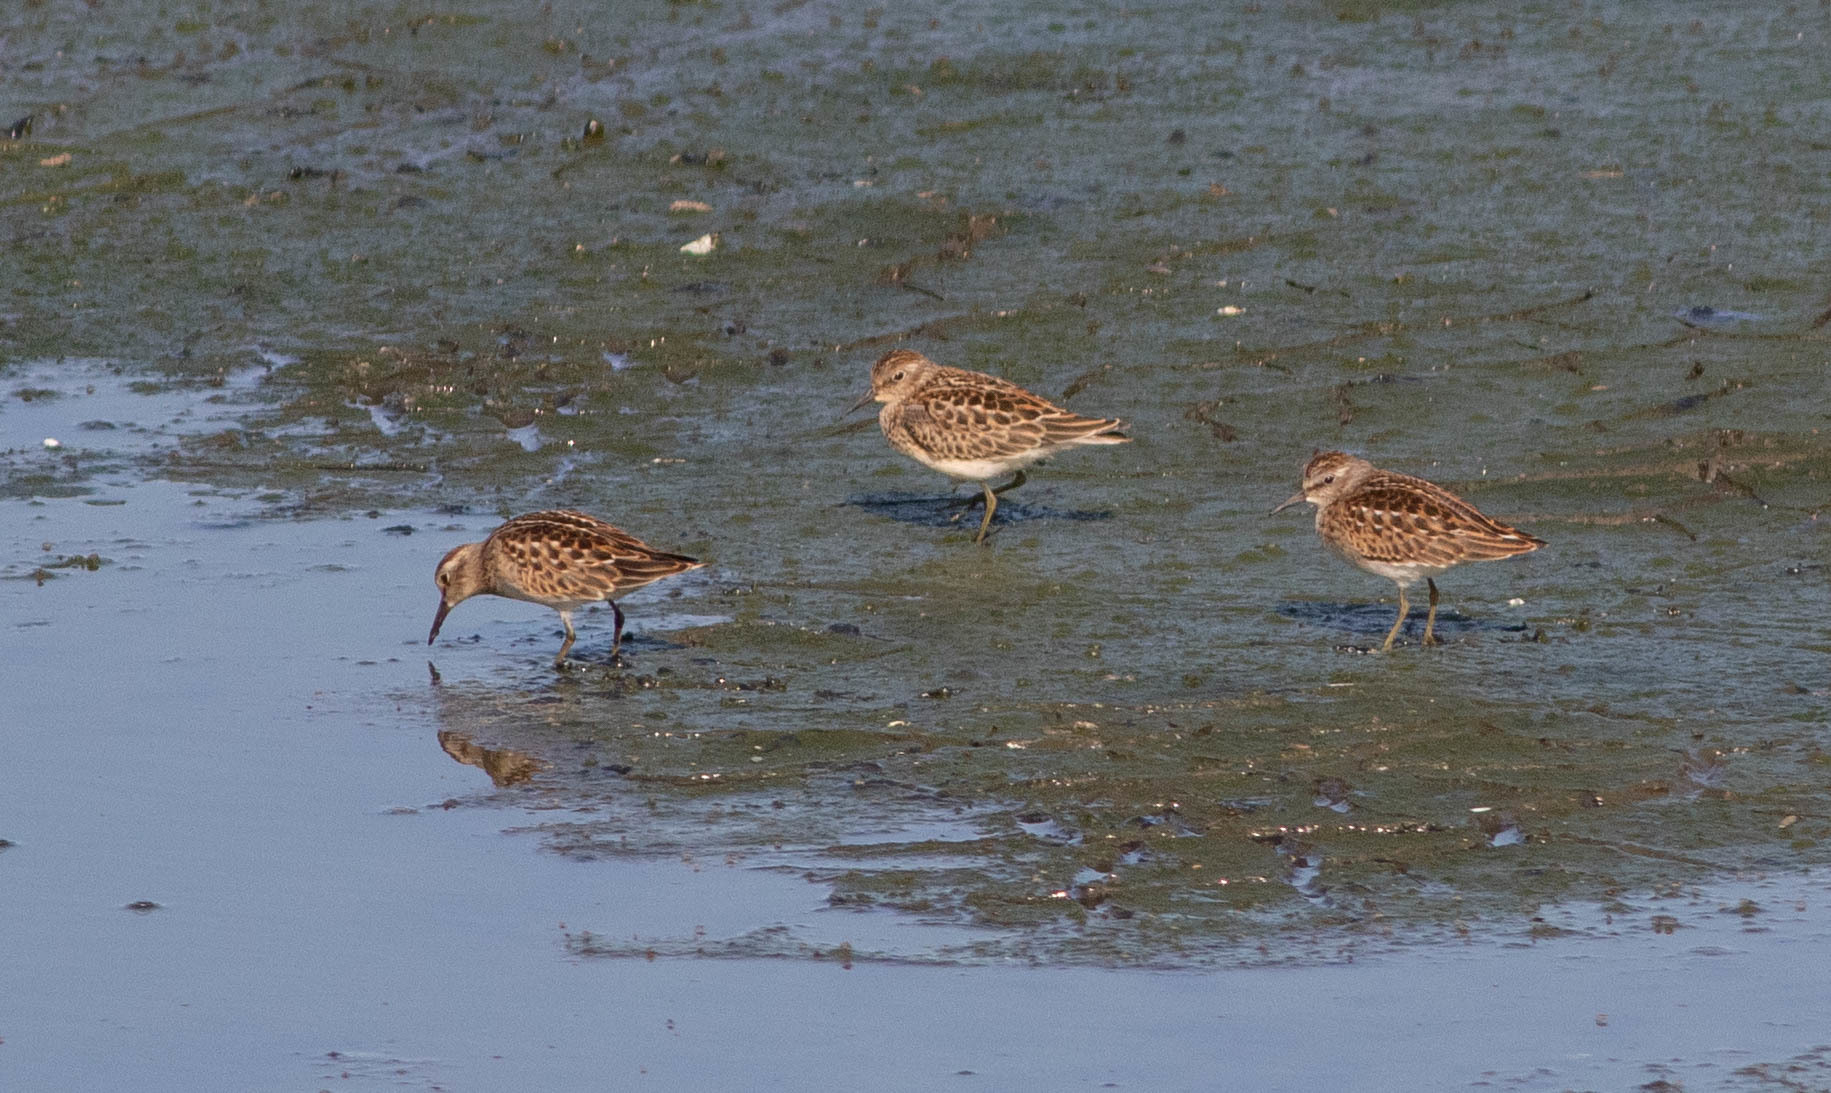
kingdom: Animalia
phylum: Chordata
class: Aves
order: Charadriiformes
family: Scolopacidae
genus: Calidris
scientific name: Calidris minutilla
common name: Least sandpiper
